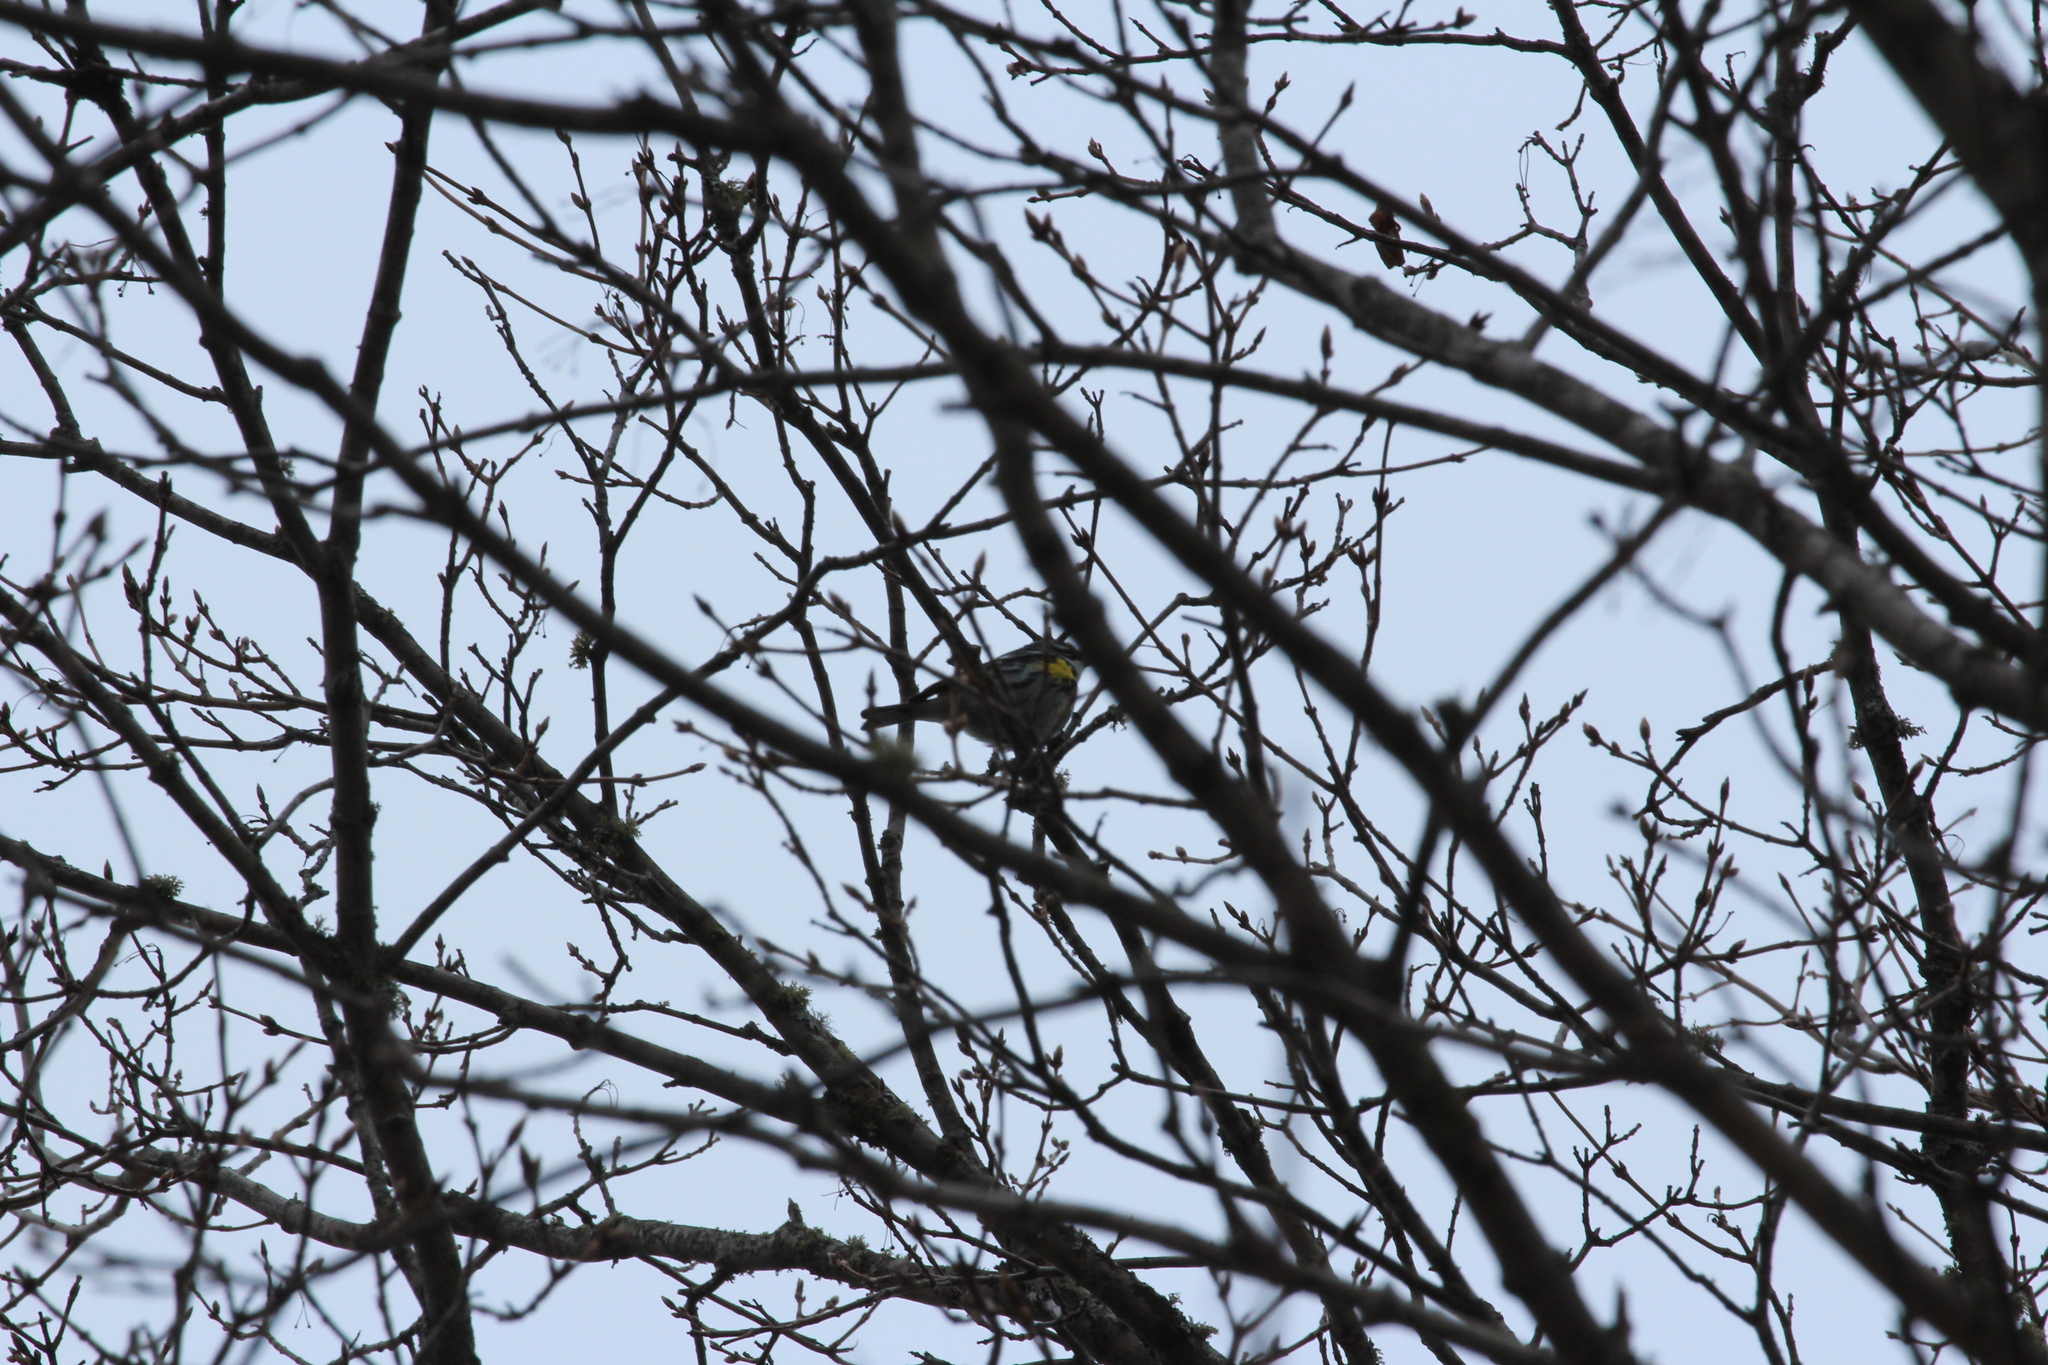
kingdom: Animalia
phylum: Chordata
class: Aves
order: Passeriformes
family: Parulidae
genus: Setophaga
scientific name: Setophaga coronata
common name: Myrtle warbler
